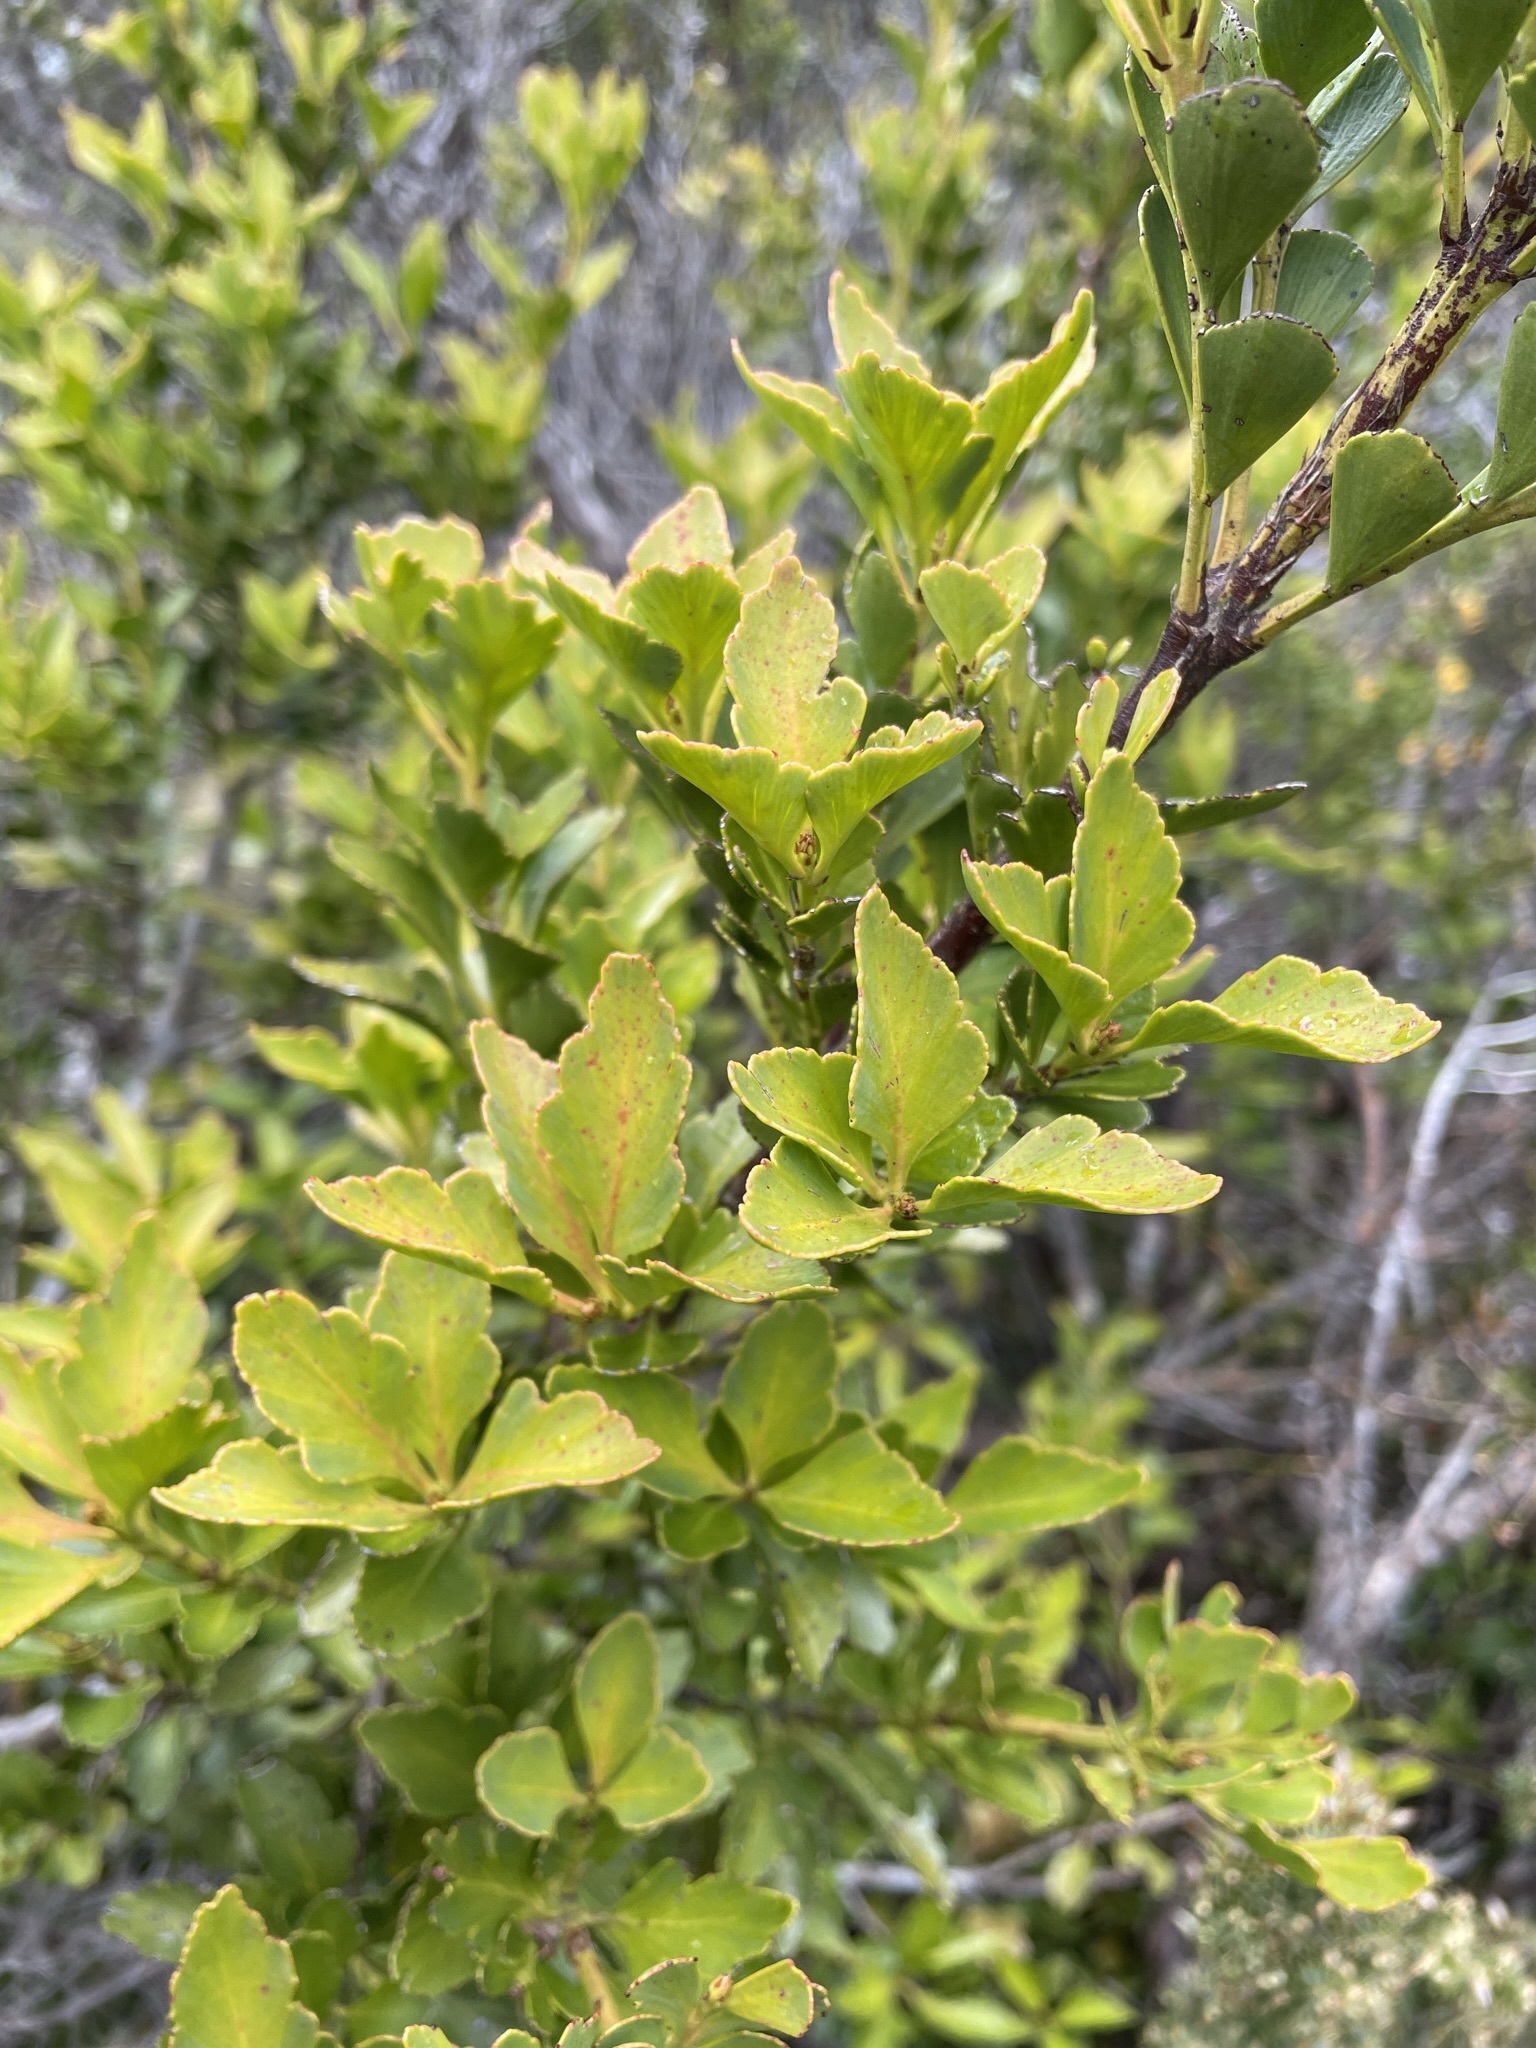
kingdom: Plantae
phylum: Tracheophyta
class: Pinopsida
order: Pinales
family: Phyllocladaceae
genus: Phyllocladus
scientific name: Phyllocladus aspleniifolius
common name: Celery-top pine
